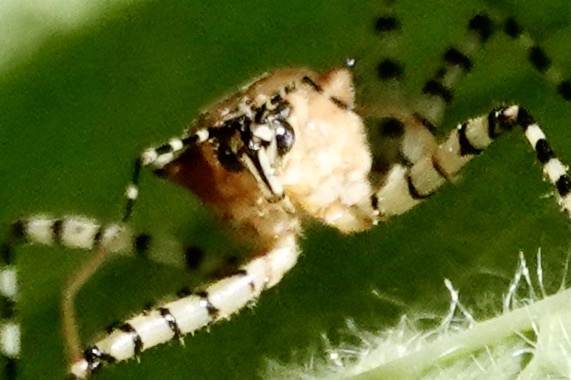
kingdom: Animalia
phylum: Arthropoda
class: Insecta
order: Hemiptera
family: Reduviidae
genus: Pselliopus
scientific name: Pselliopus cinctus
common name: Ringed assassin bug
